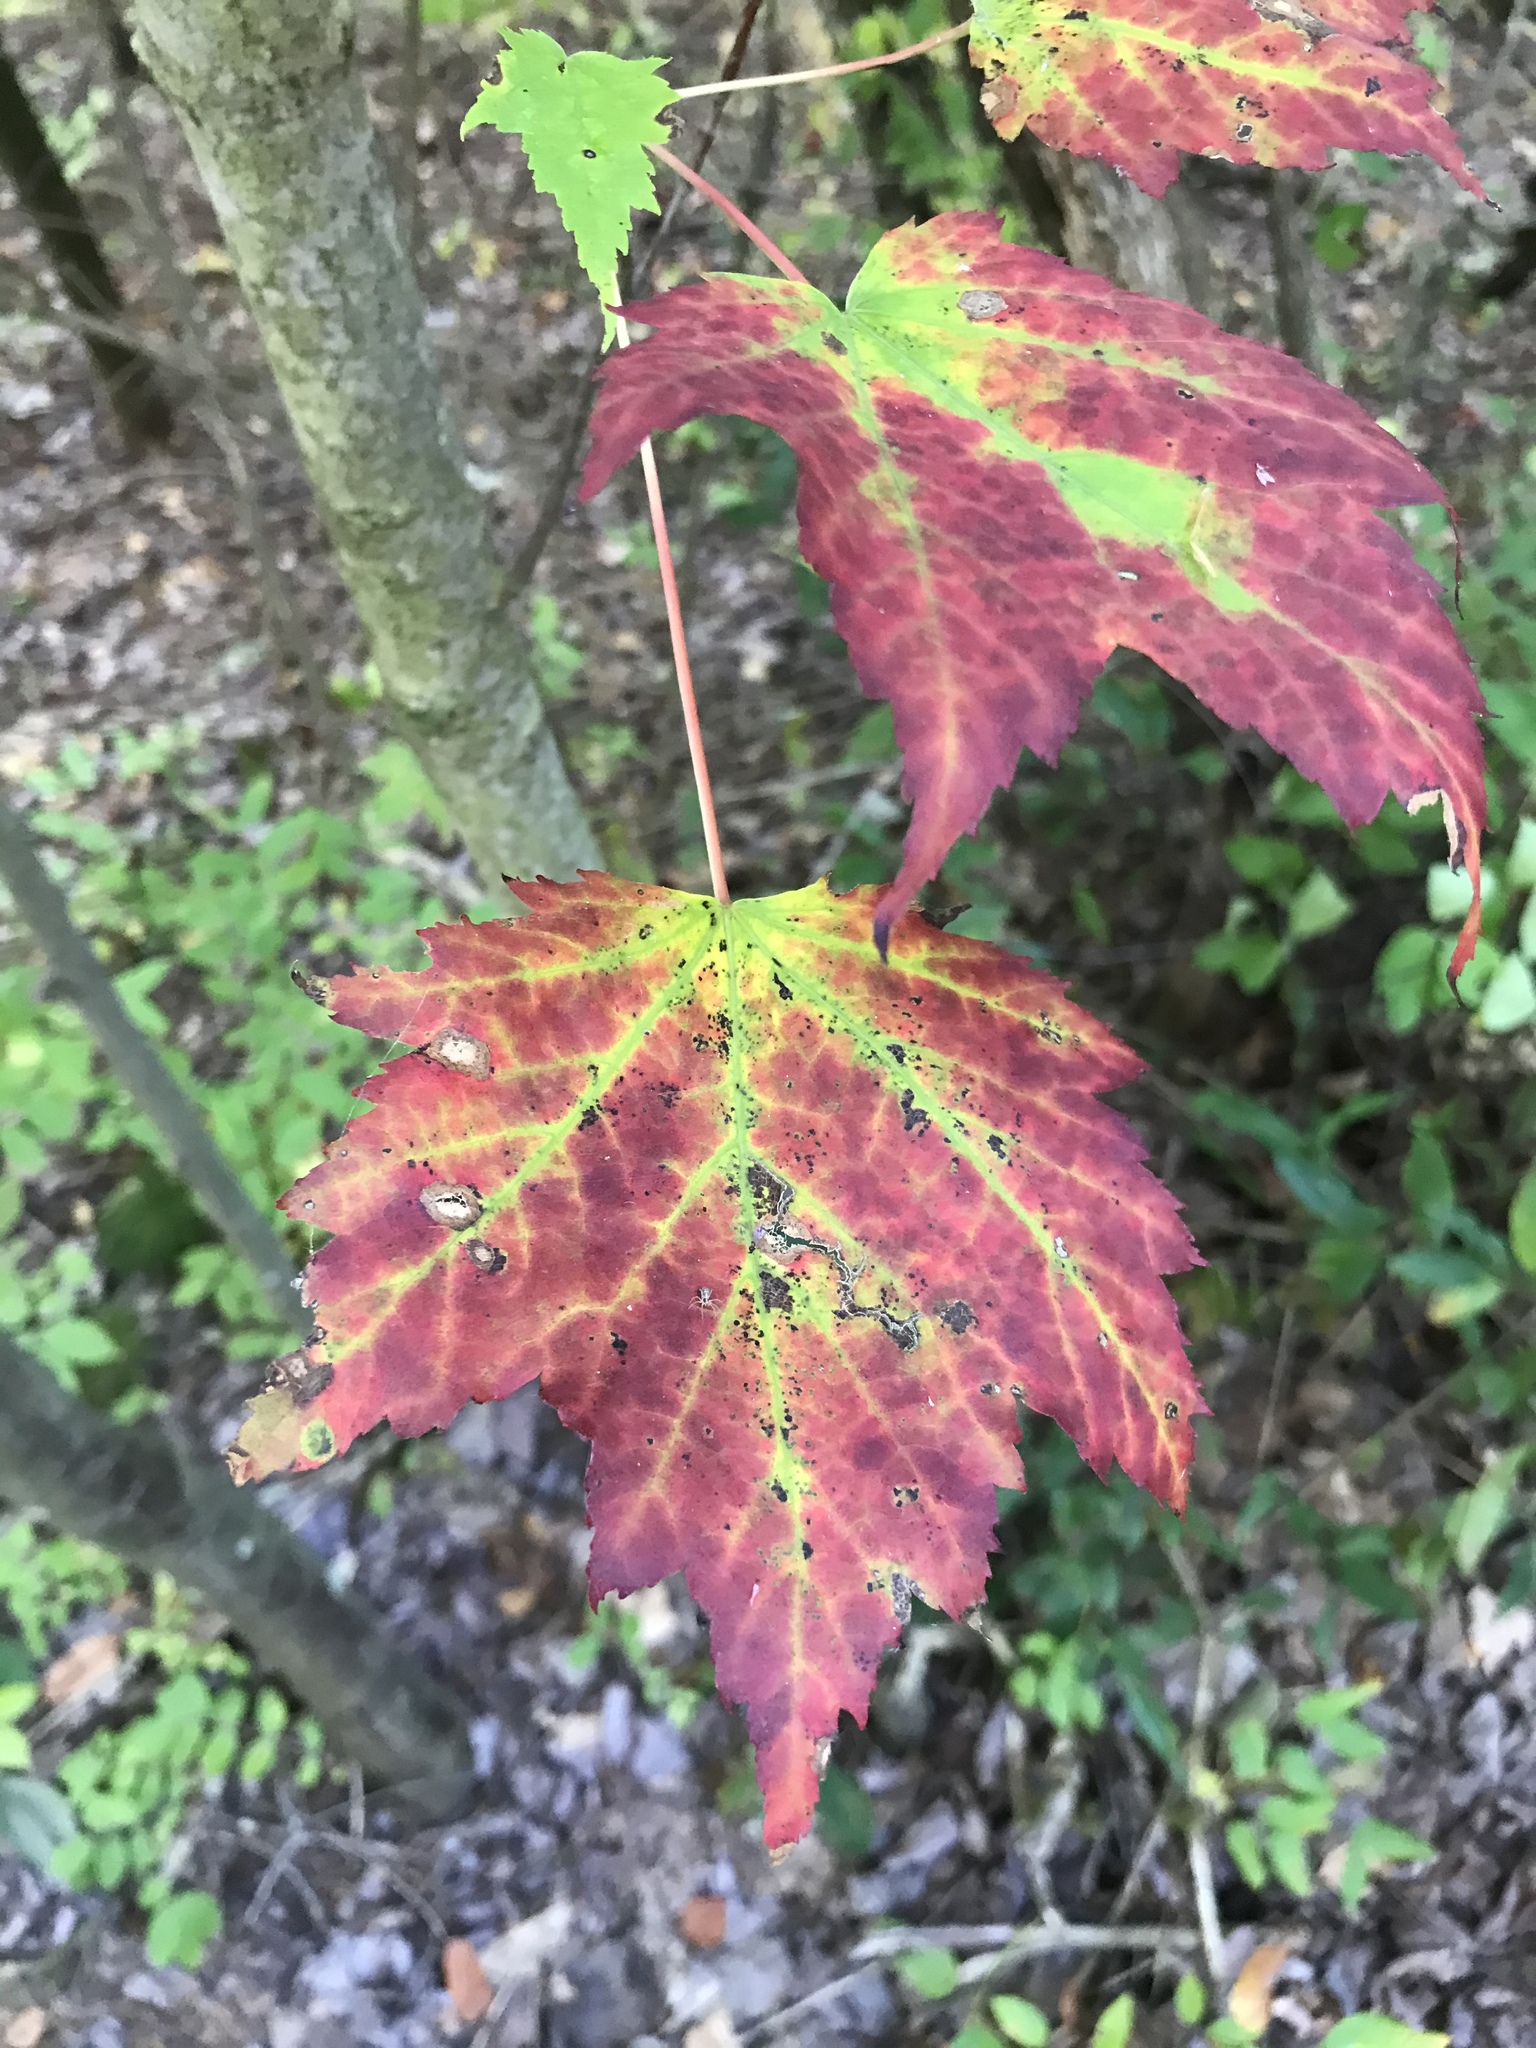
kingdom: Plantae
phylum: Tracheophyta
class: Magnoliopsida
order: Sapindales
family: Sapindaceae
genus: Acer
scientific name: Acer rubrum
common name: Red maple
